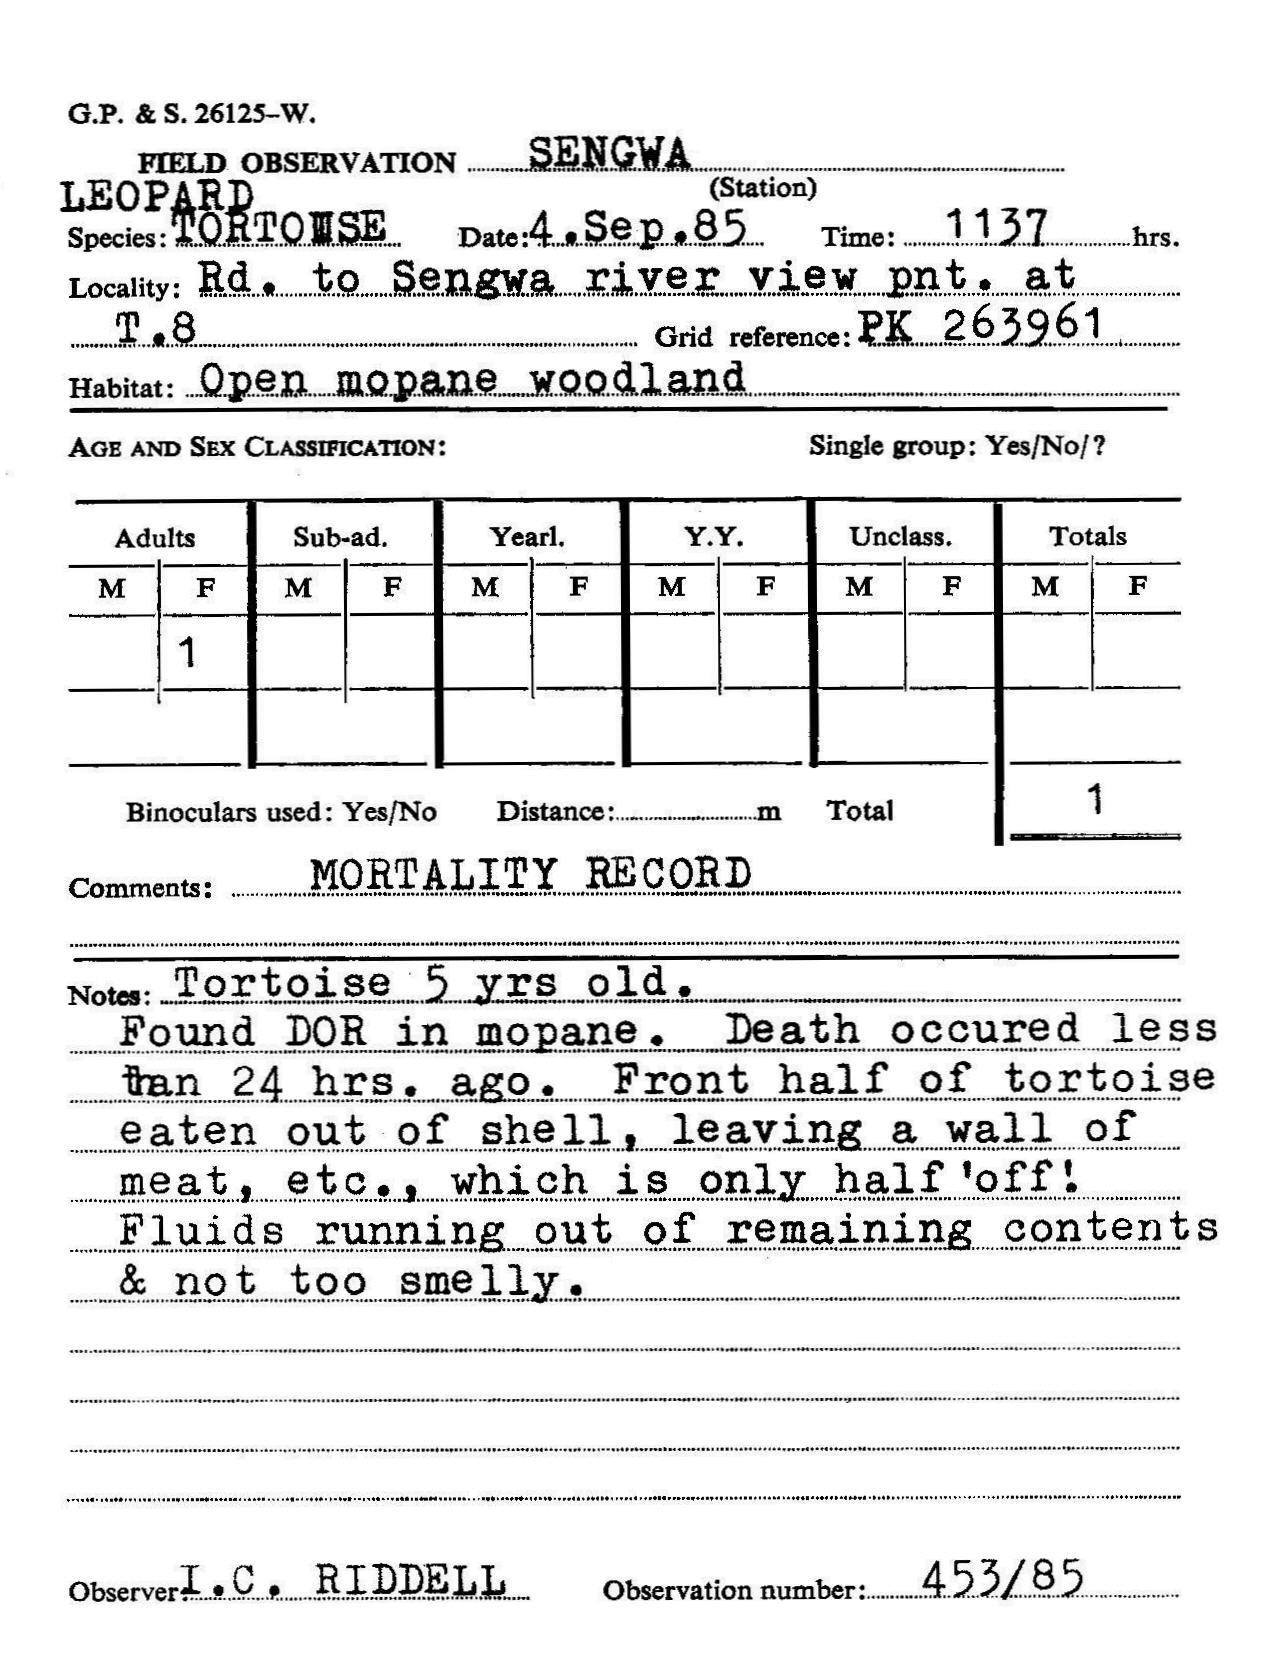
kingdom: Animalia
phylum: Chordata
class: Testudines
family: Testudinidae
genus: Stigmochelys
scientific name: Stigmochelys pardalis
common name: Leopard tortoise
